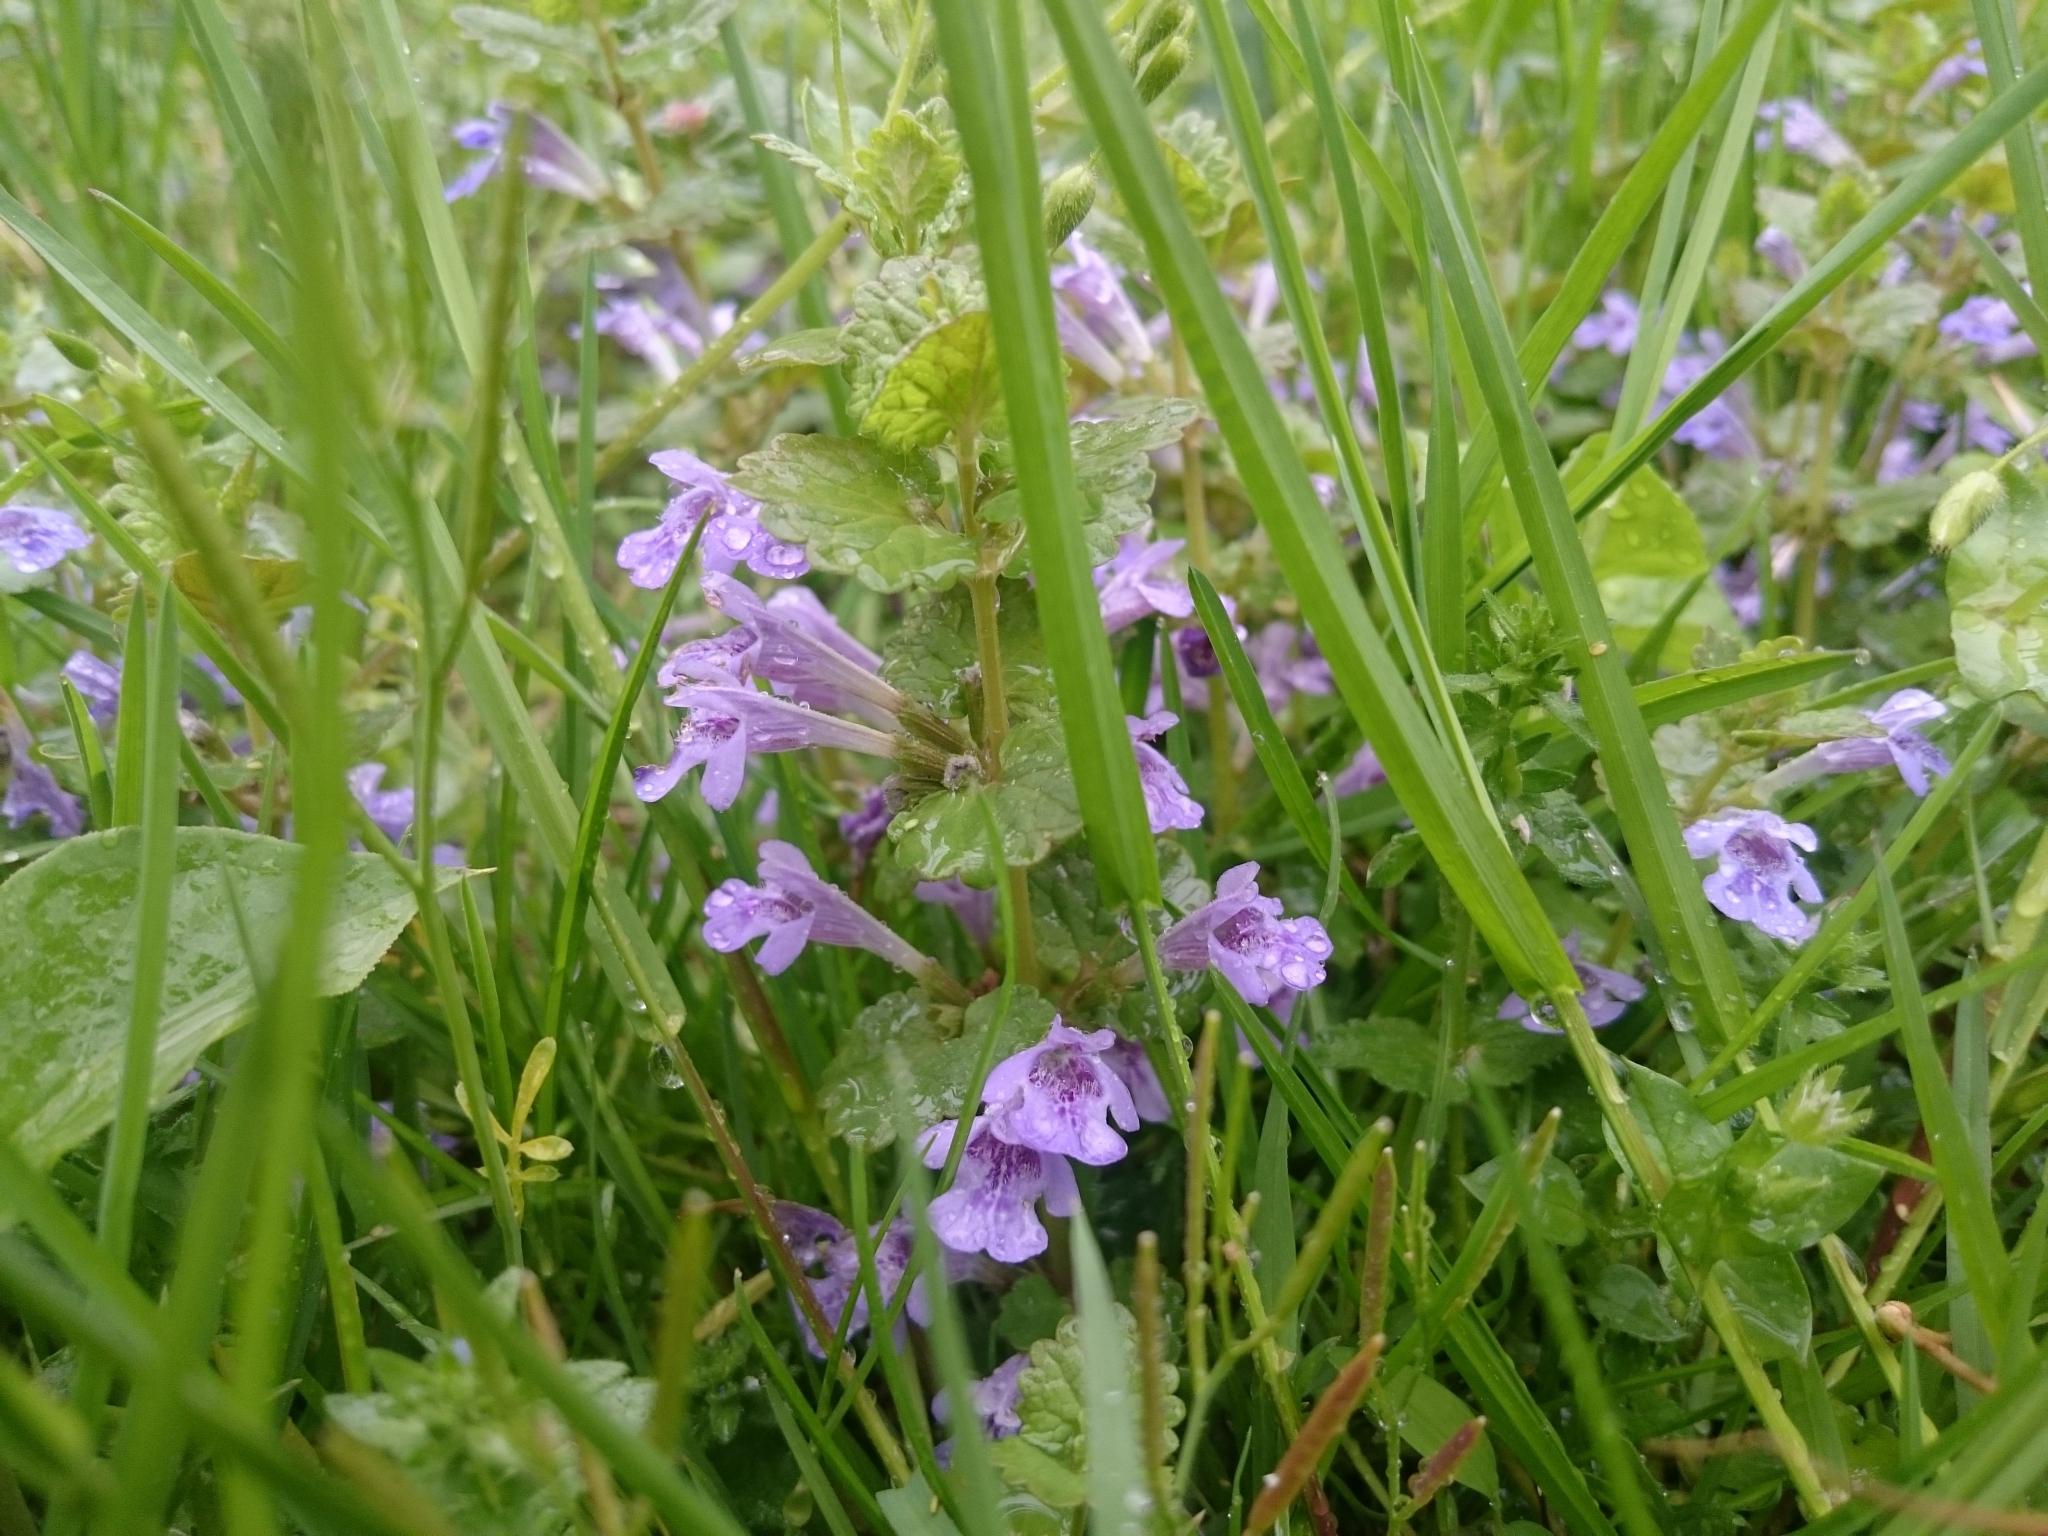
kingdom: Plantae
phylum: Tracheophyta
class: Magnoliopsida
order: Lamiales
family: Lamiaceae
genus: Glechoma
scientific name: Glechoma hederacea
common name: Ground ivy
